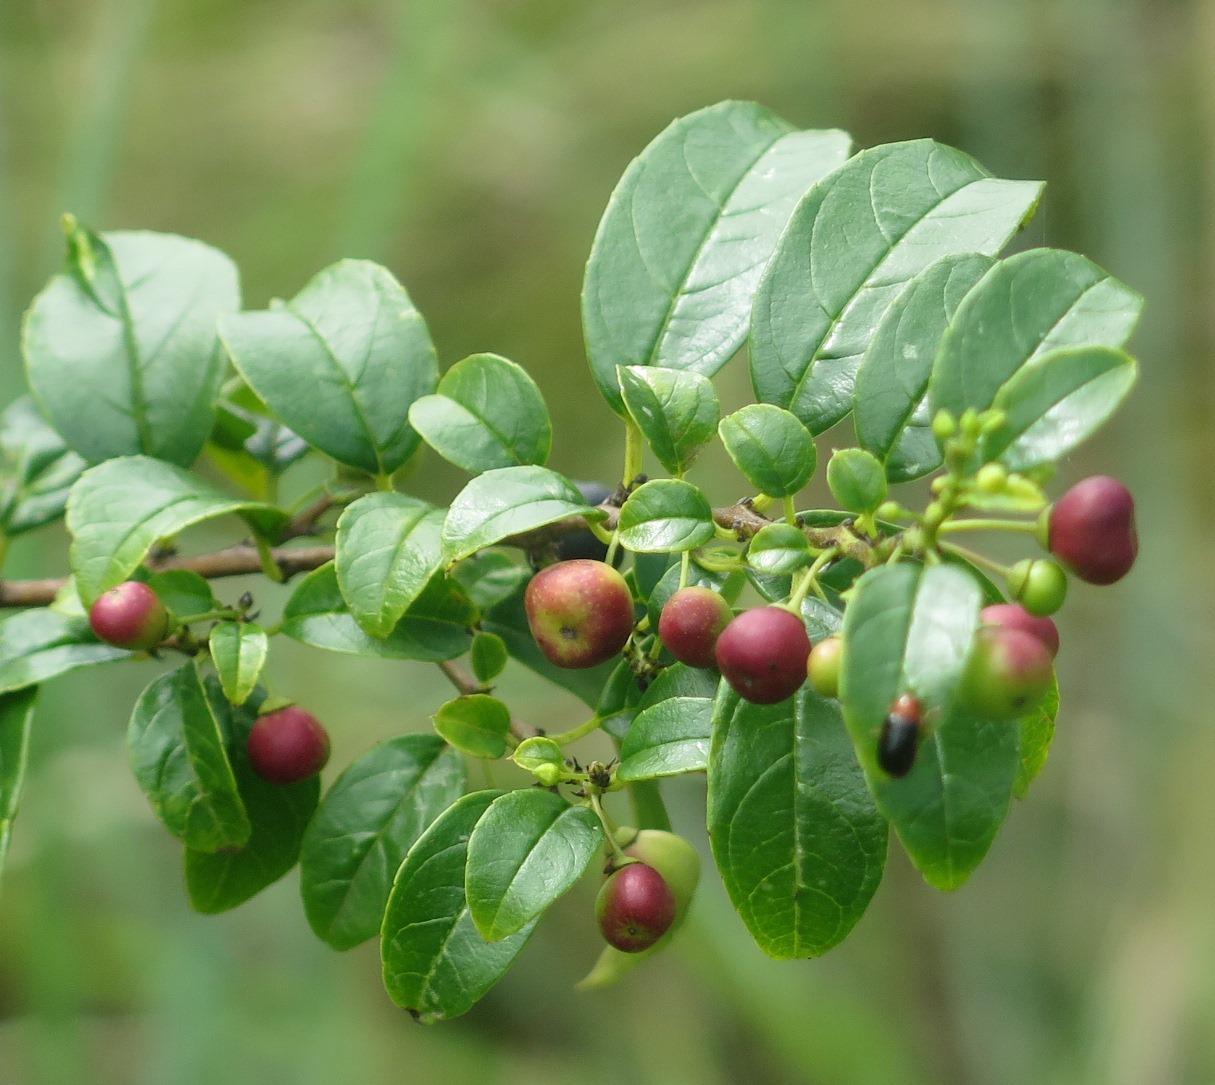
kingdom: Plantae
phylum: Tracheophyta
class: Magnoliopsida
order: Rosales
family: Rhamnaceae
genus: Rhamnus
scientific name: Rhamnus prinoides
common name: Dogwood
